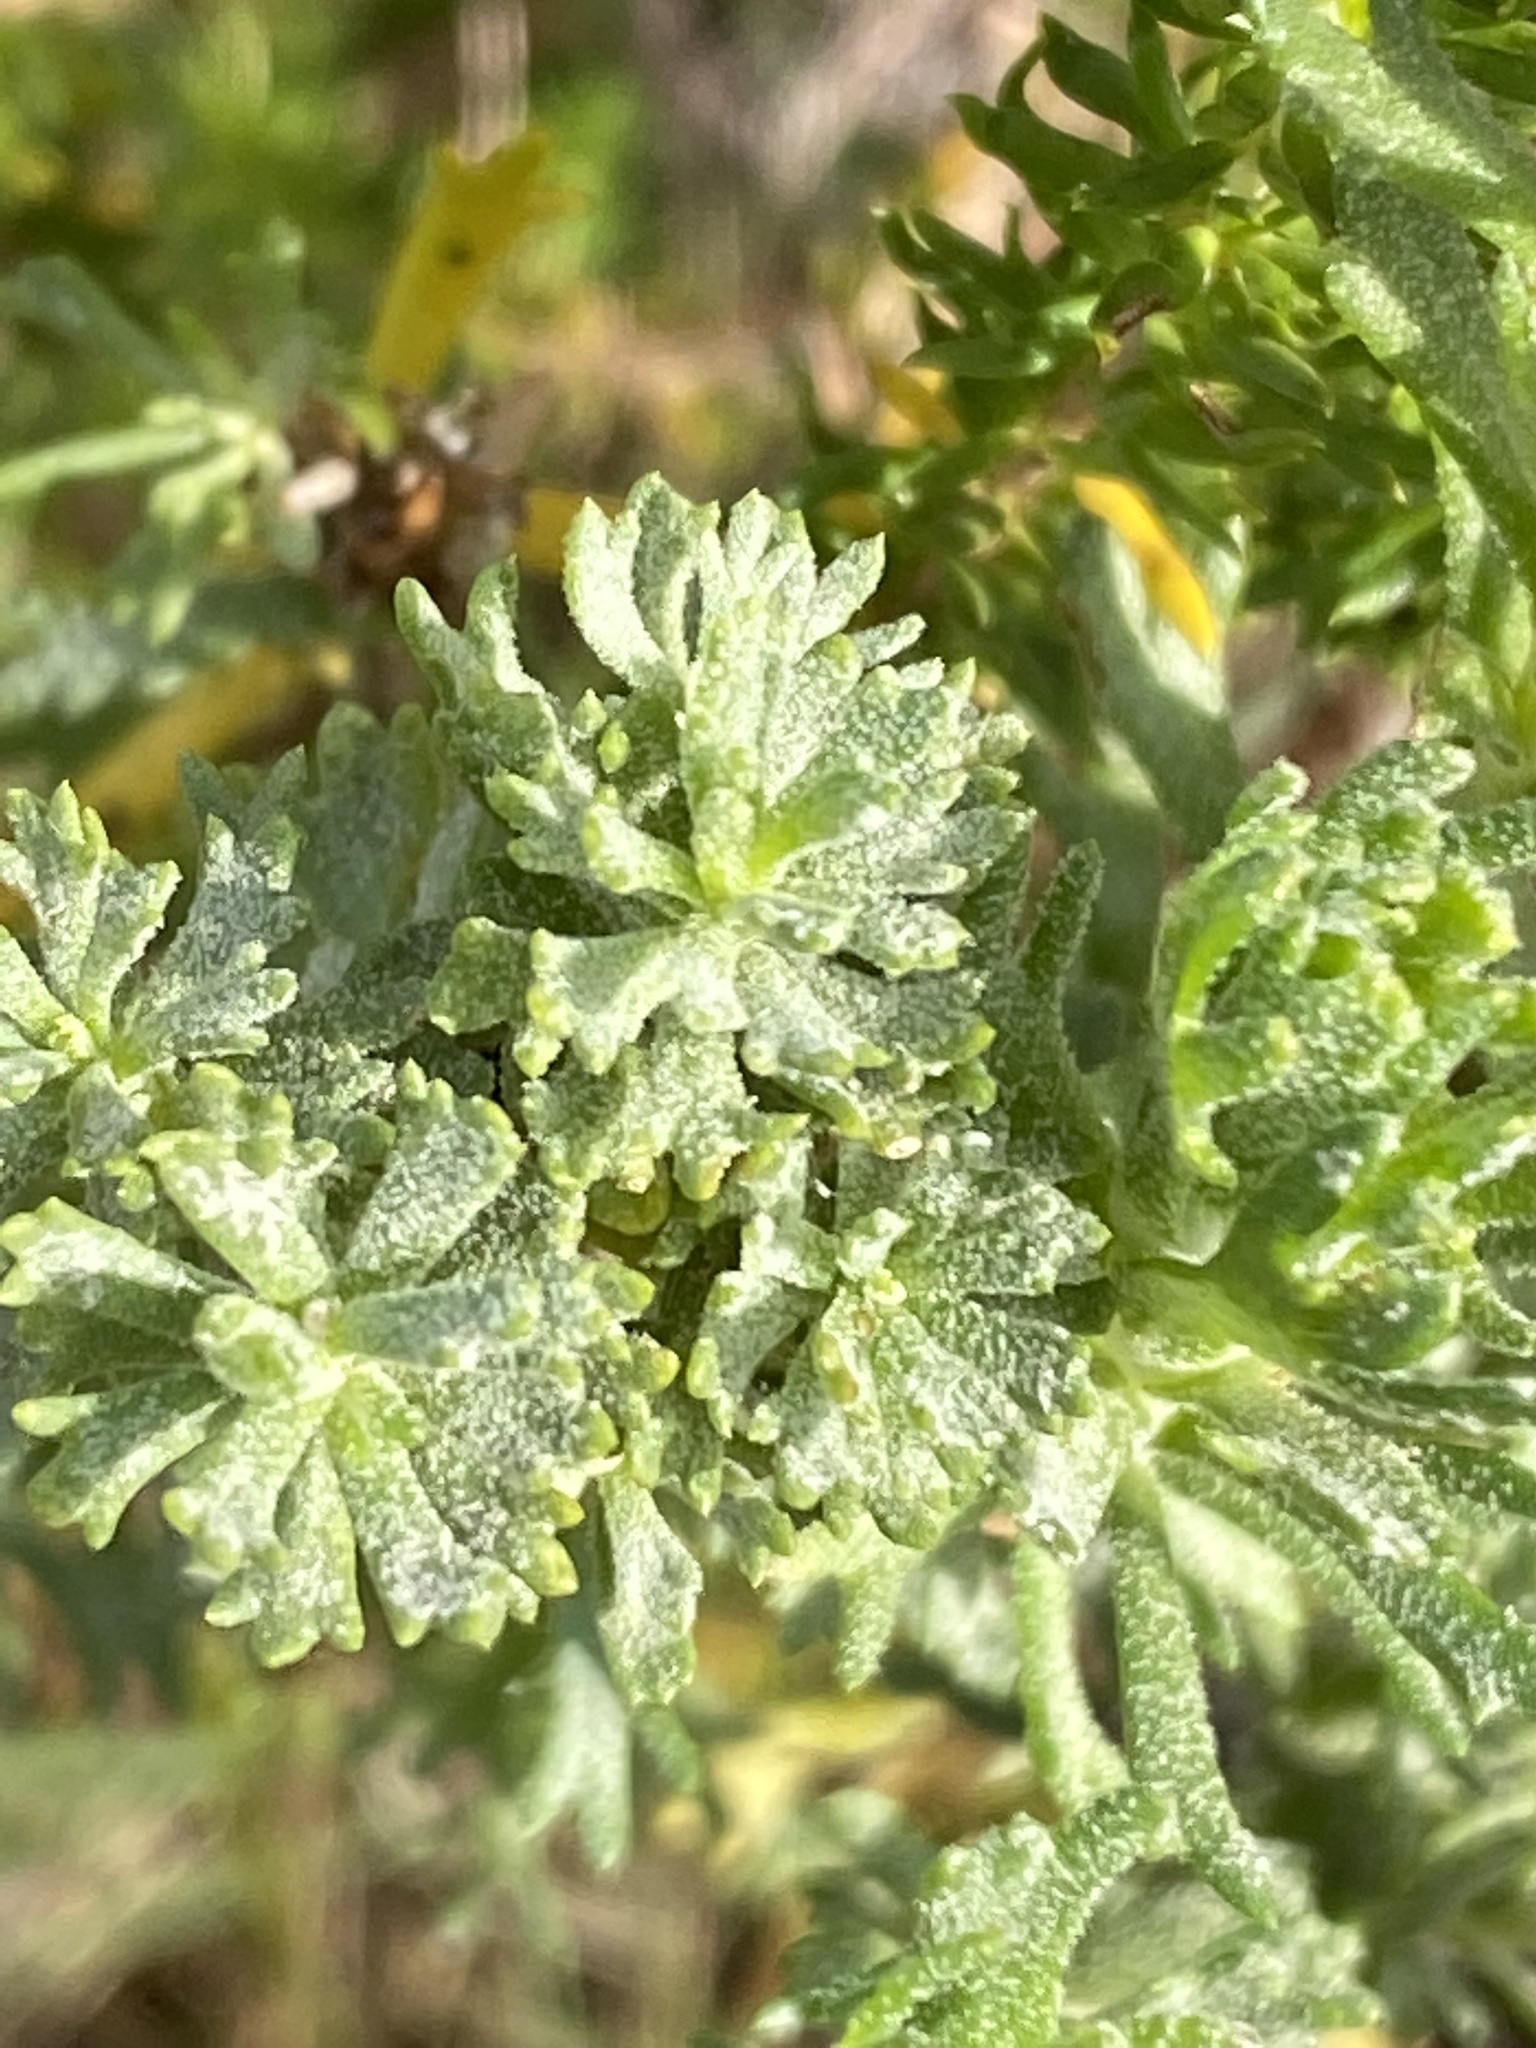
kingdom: Plantae
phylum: Tracheophyta
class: Magnoliopsida
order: Asterales
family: Asteraceae
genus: Athanasia
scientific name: Athanasia trifurcata
